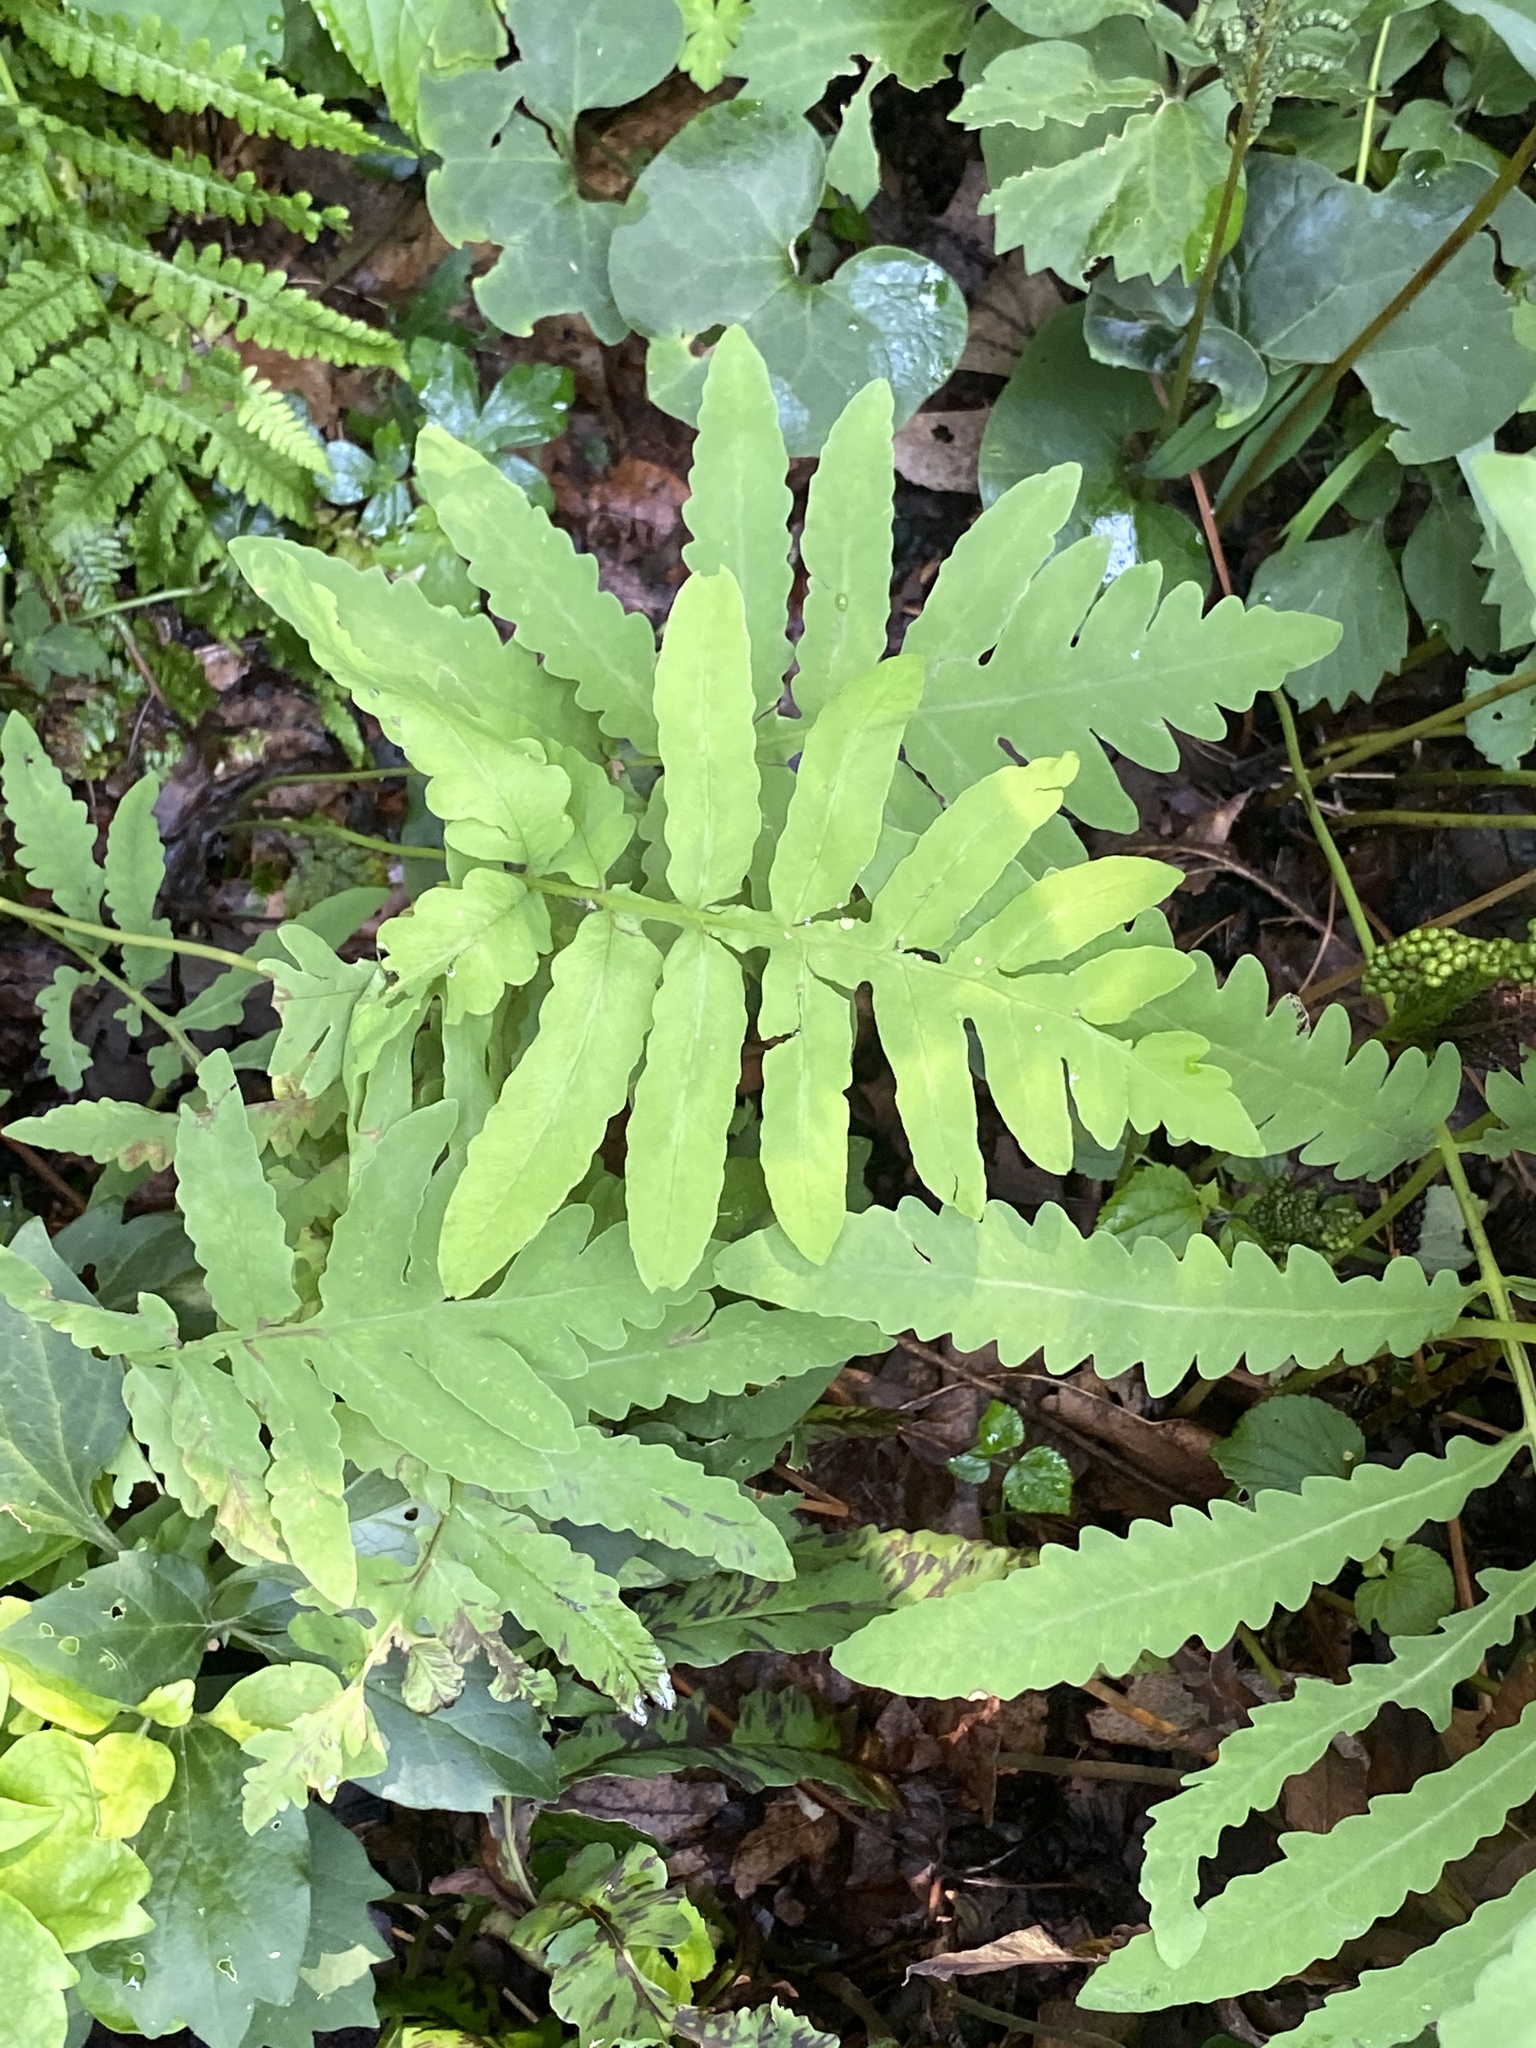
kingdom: Plantae
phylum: Tracheophyta
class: Polypodiopsida
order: Polypodiales
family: Onocleaceae
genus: Onoclea
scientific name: Onoclea sensibilis
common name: Sensitive fern
